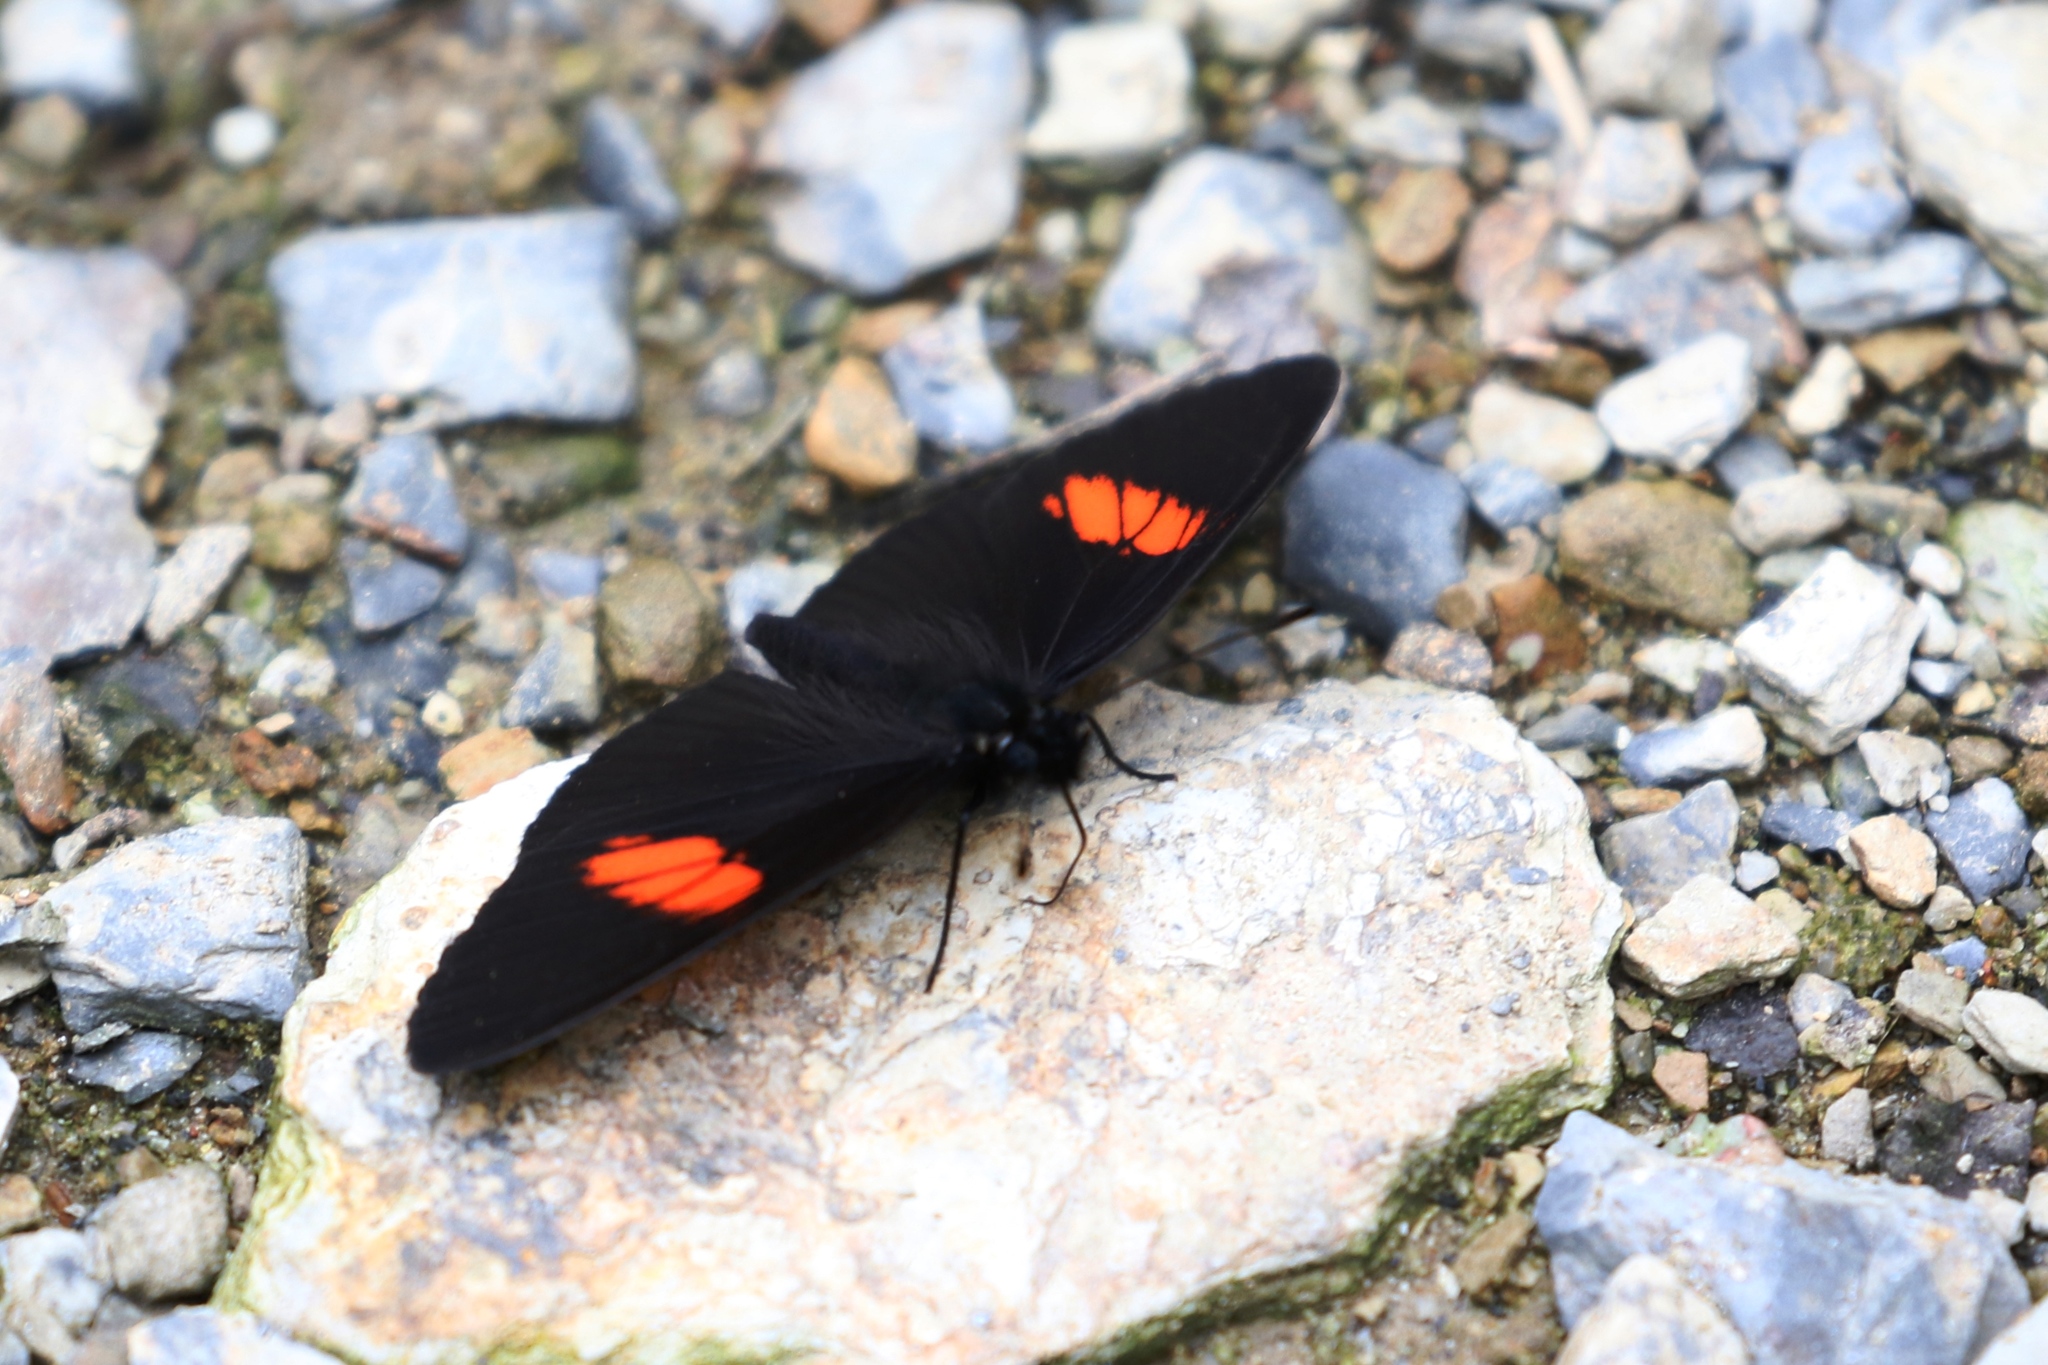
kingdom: Animalia
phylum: Arthropoda
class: Insecta
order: Lepidoptera
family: Nymphalidae
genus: Castilia
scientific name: Castilia castilla
